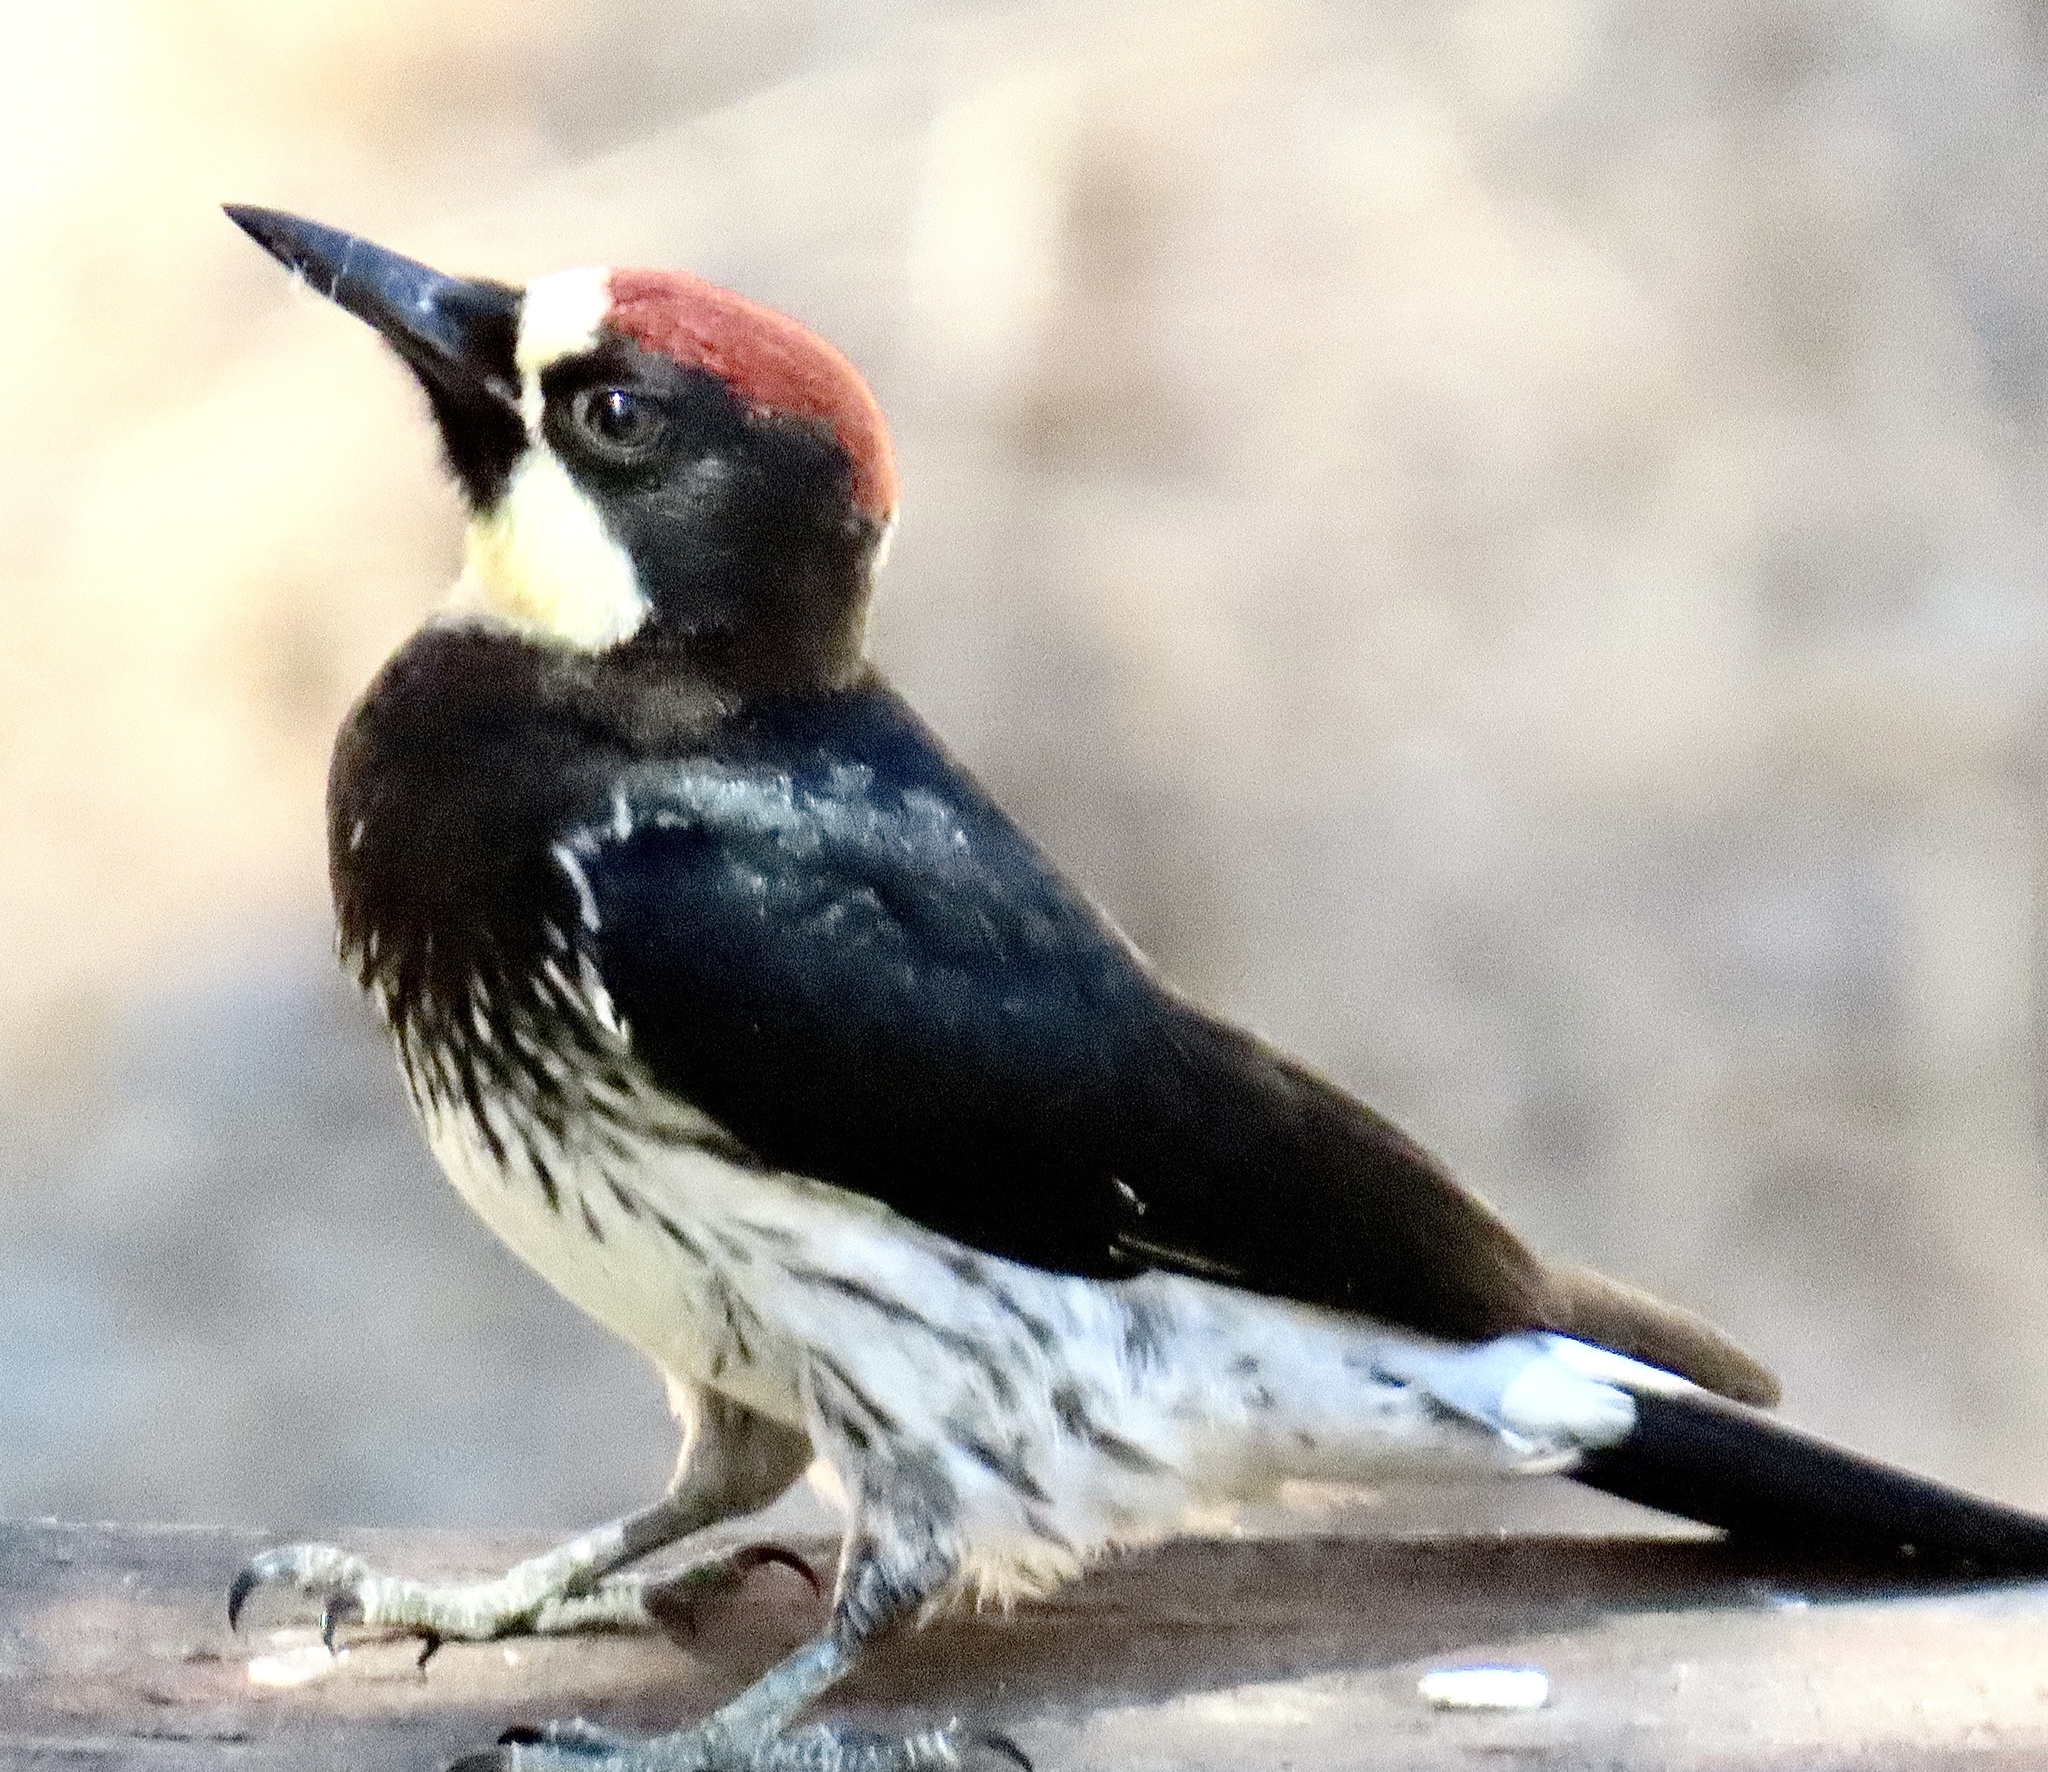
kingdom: Animalia
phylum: Chordata
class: Aves
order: Piciformes
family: Picidae
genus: Melanerpes
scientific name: Melanerpes formicivorus
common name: Acorn woodpecker
